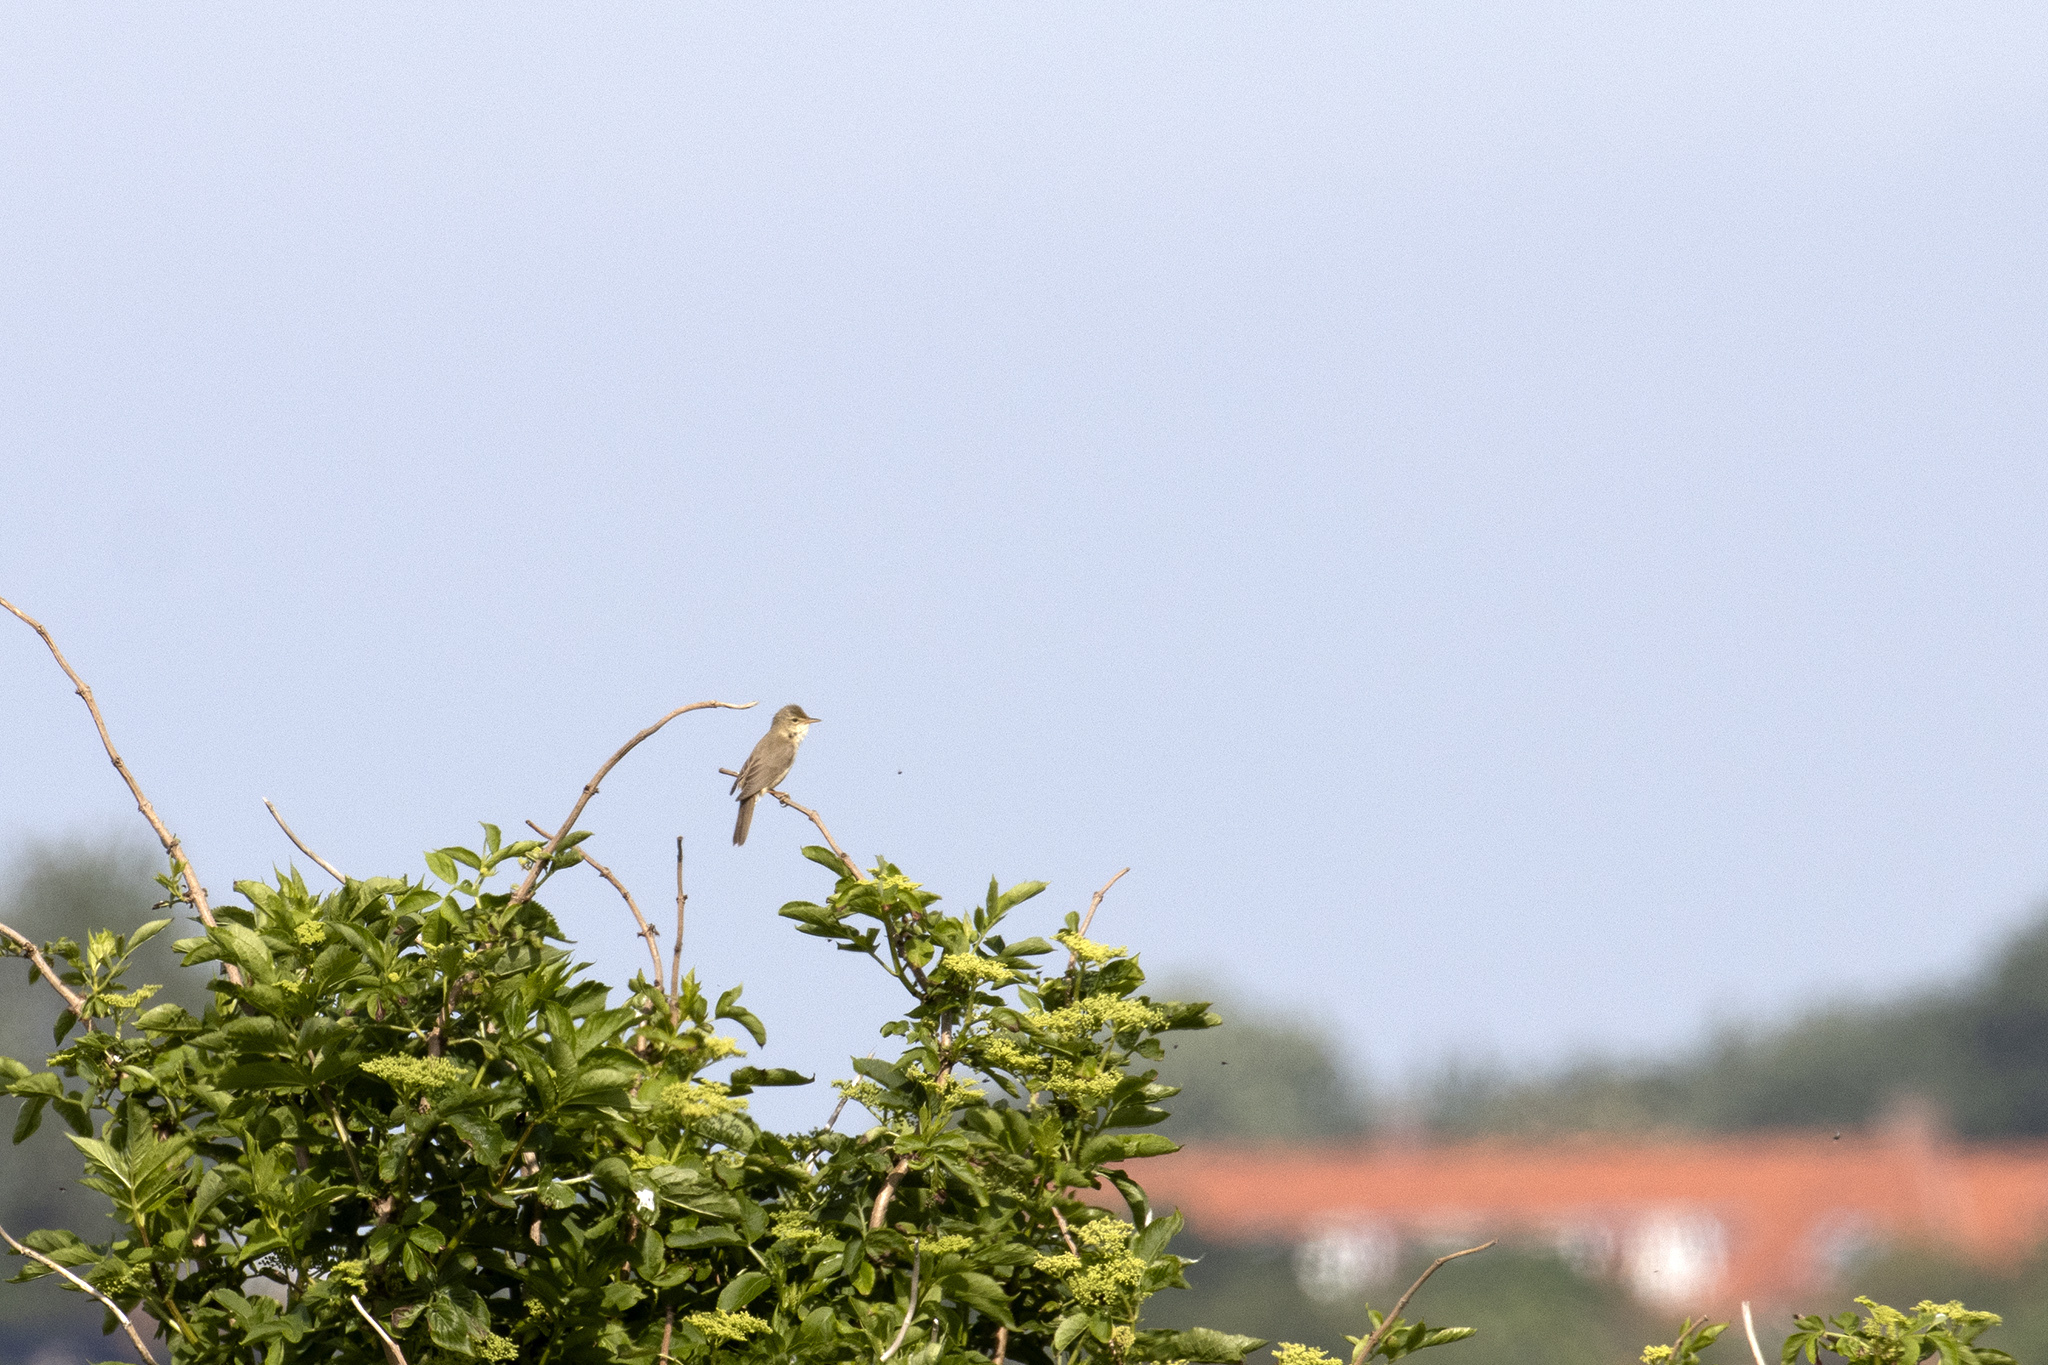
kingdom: Animalia
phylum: Chordata
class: Aves
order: Passeriformes
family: Sylviidae
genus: Sylvia
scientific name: Sylvia communis
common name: Common whitethroat
